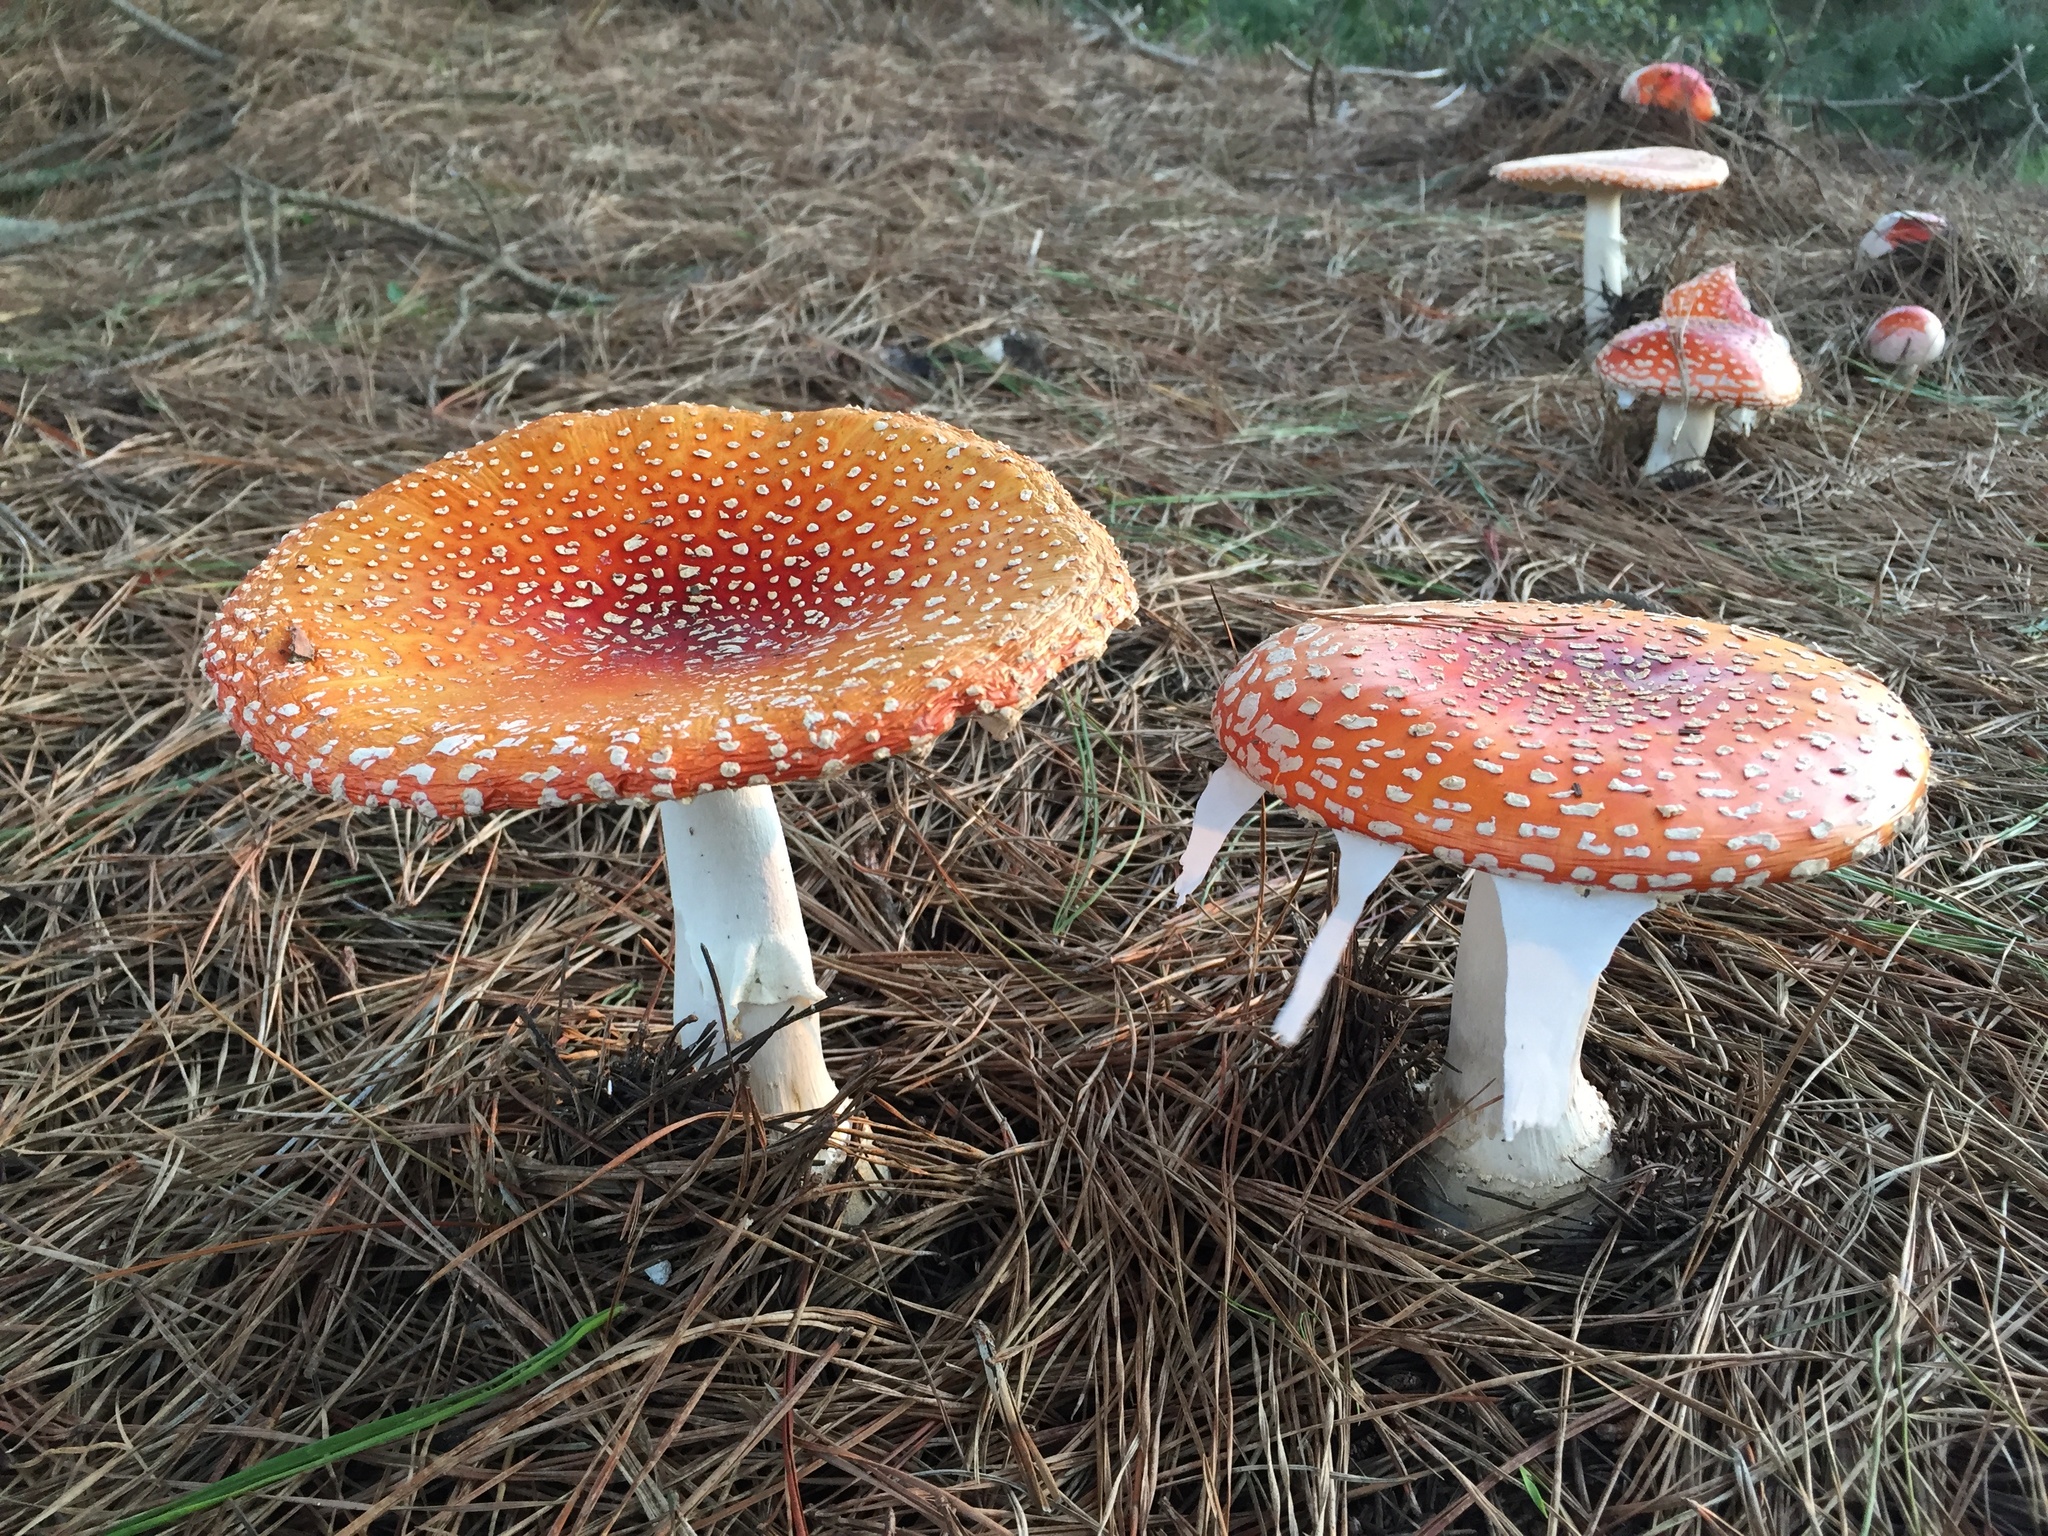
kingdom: Fungi
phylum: Basidiomycota
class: Agaricomycetes
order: Agaricales
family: Amanitaceae
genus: Amanita
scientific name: Amanita muscaria
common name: Fly agaric
